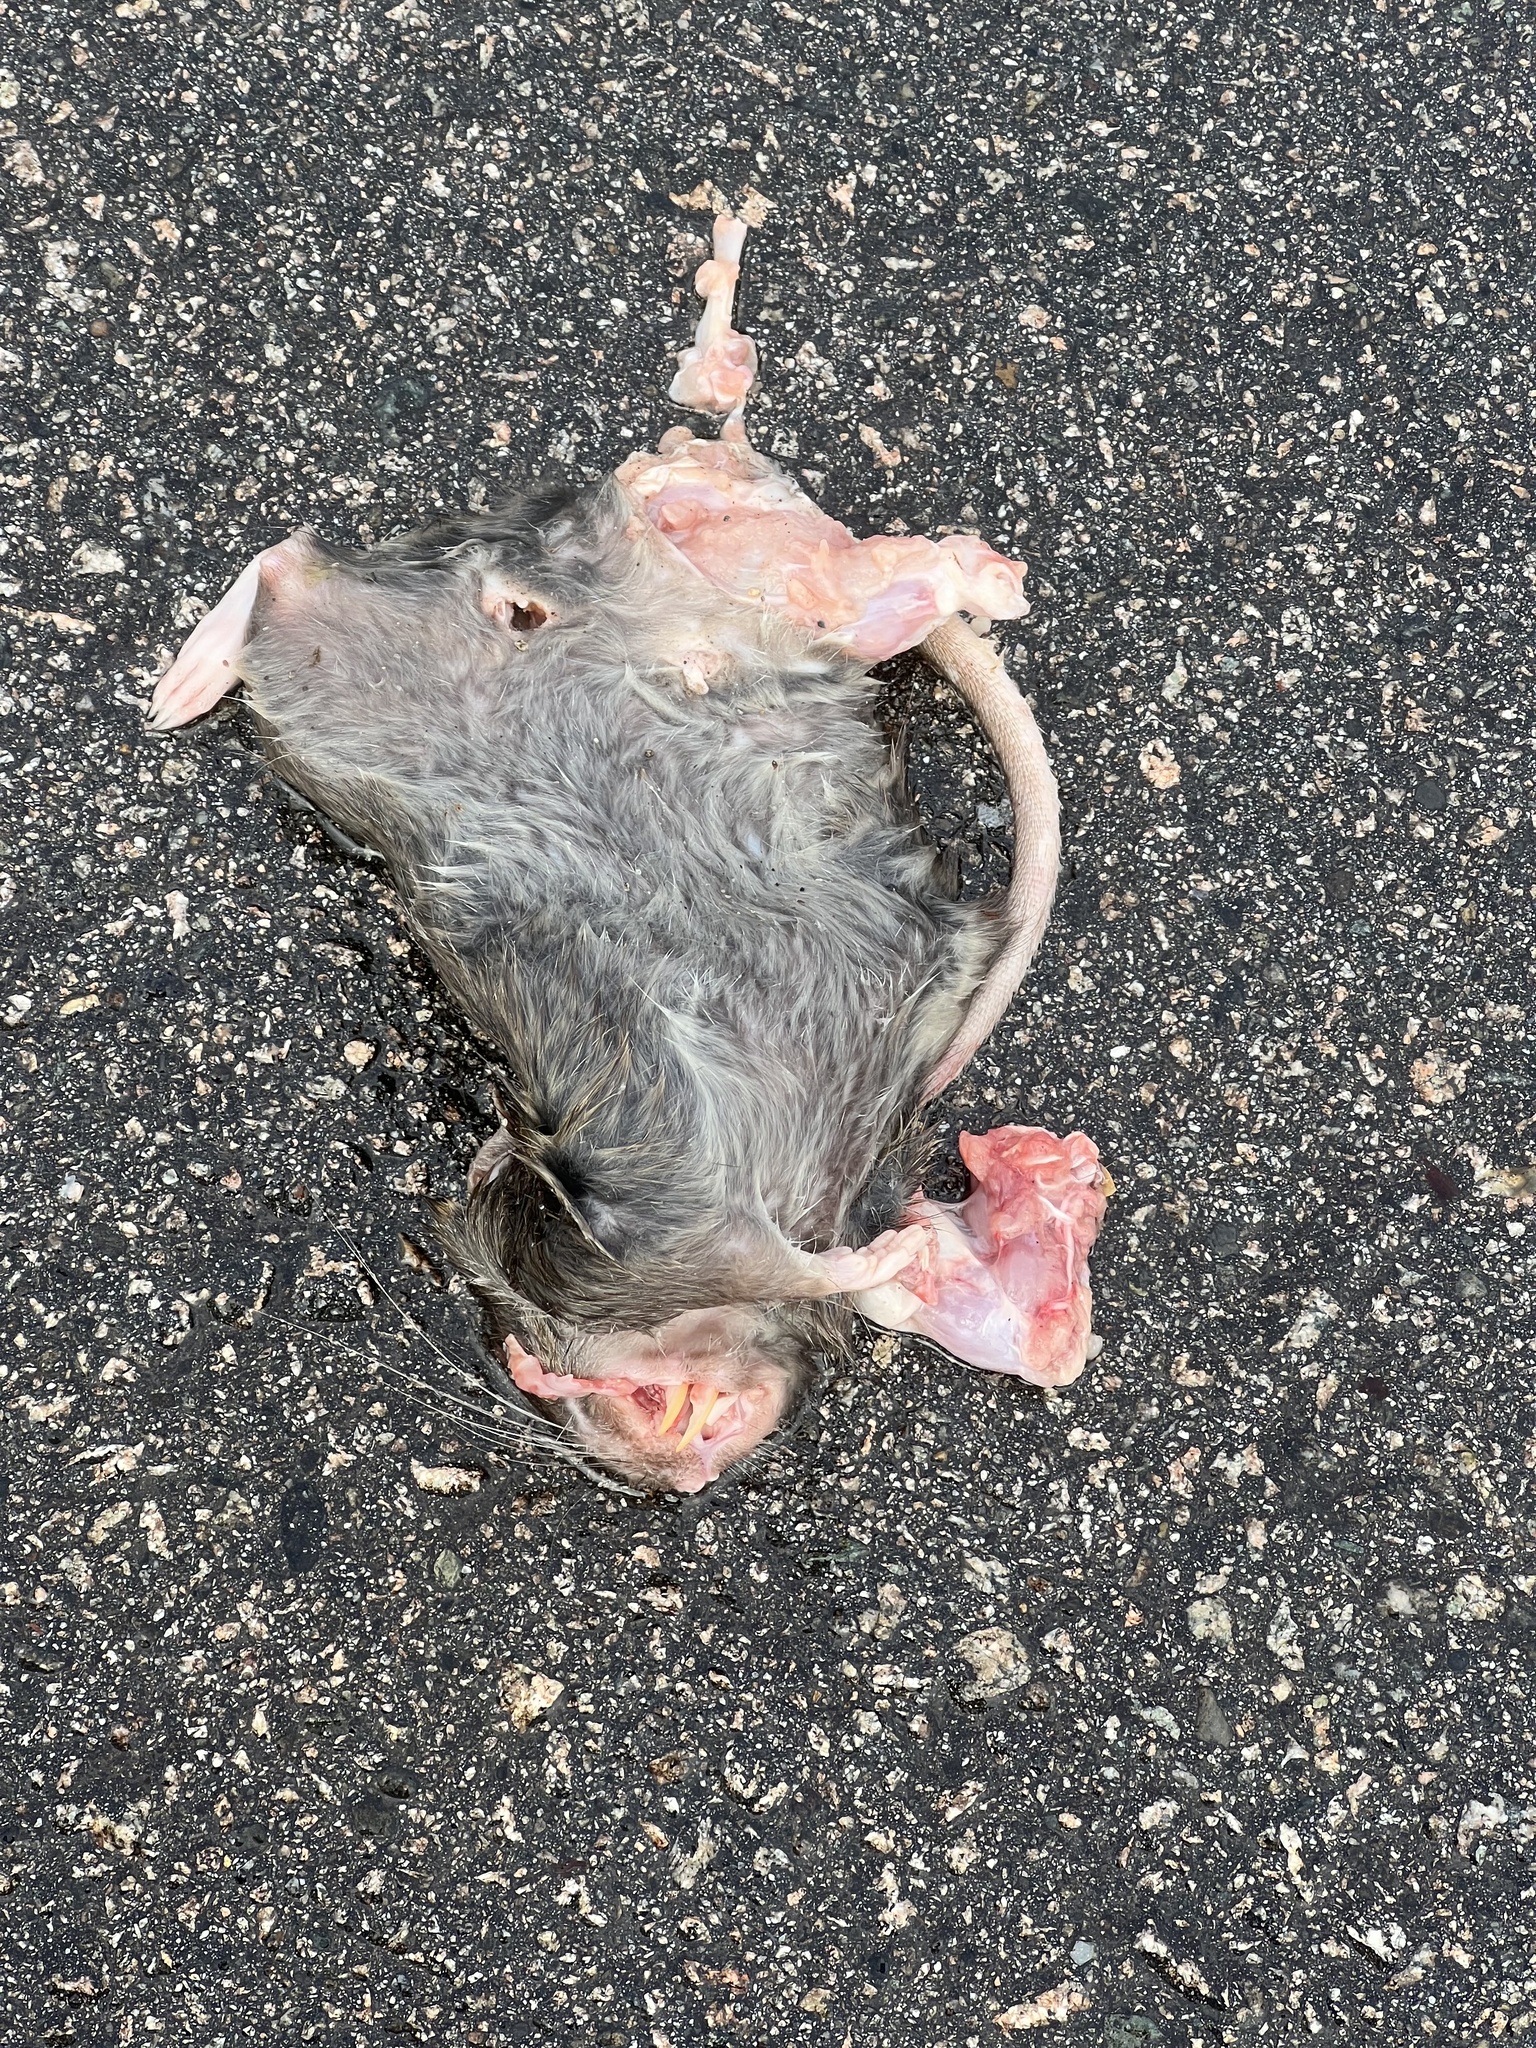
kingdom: Animalia
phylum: Chordata
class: Mammalia
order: Rodentia
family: Muridae
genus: Rattus
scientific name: Rattus norvegicus
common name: Brown rat
